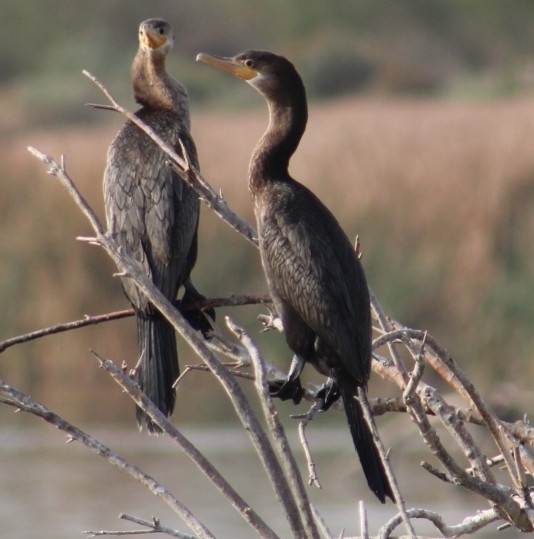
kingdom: Animalia
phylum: Chordata
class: Aves
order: Suliformes
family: Phalacrocoracidae
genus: Phalacrocorax
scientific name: Phalacrocorax auritus
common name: Double-crested cormorant
